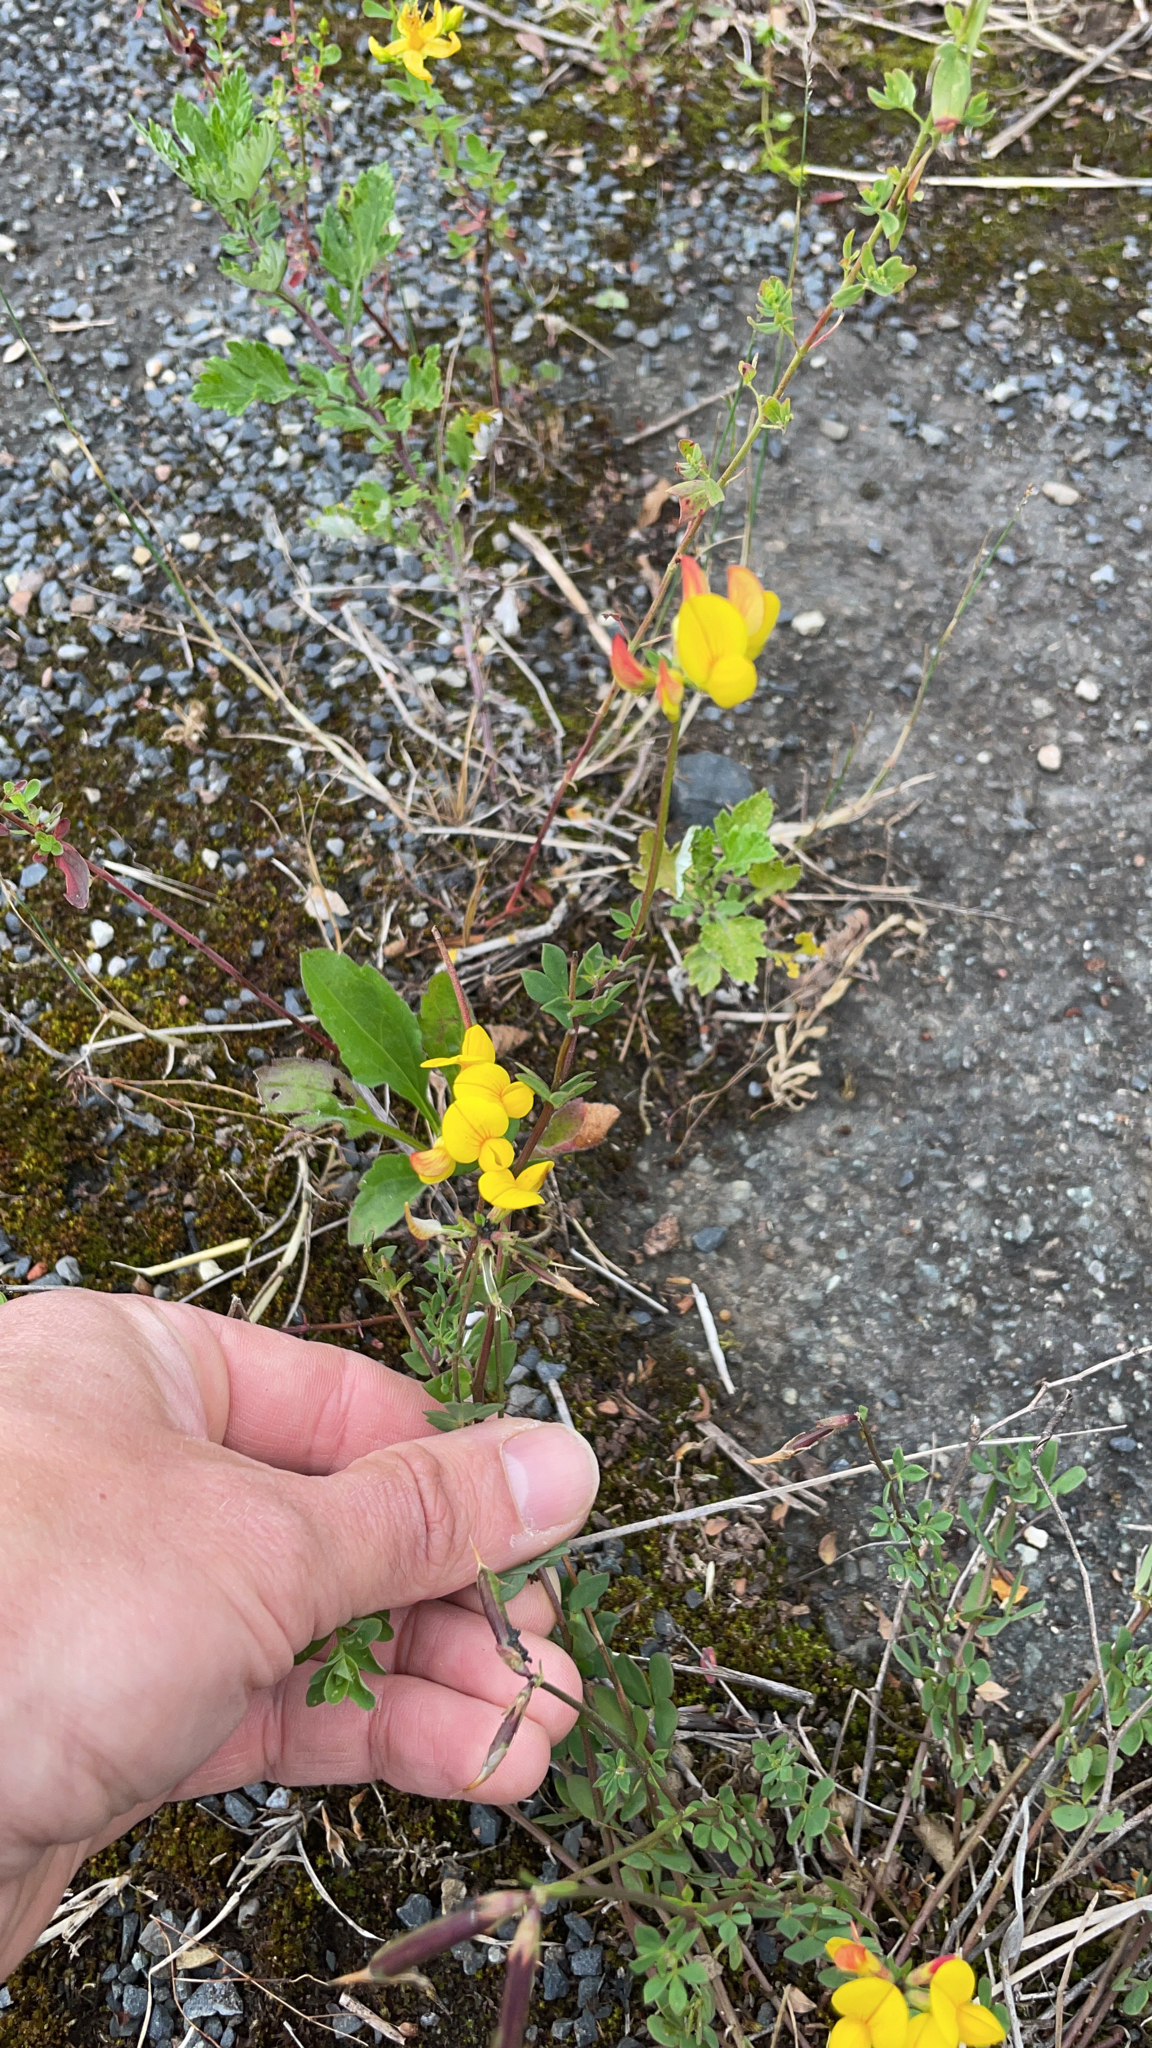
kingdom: Plantae
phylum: Tracheophyta
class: Magnoliopsida
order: Fabales
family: Fabaceae
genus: Lotus
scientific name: Lotus corniculatus
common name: Common bird's-foot-trefoil
